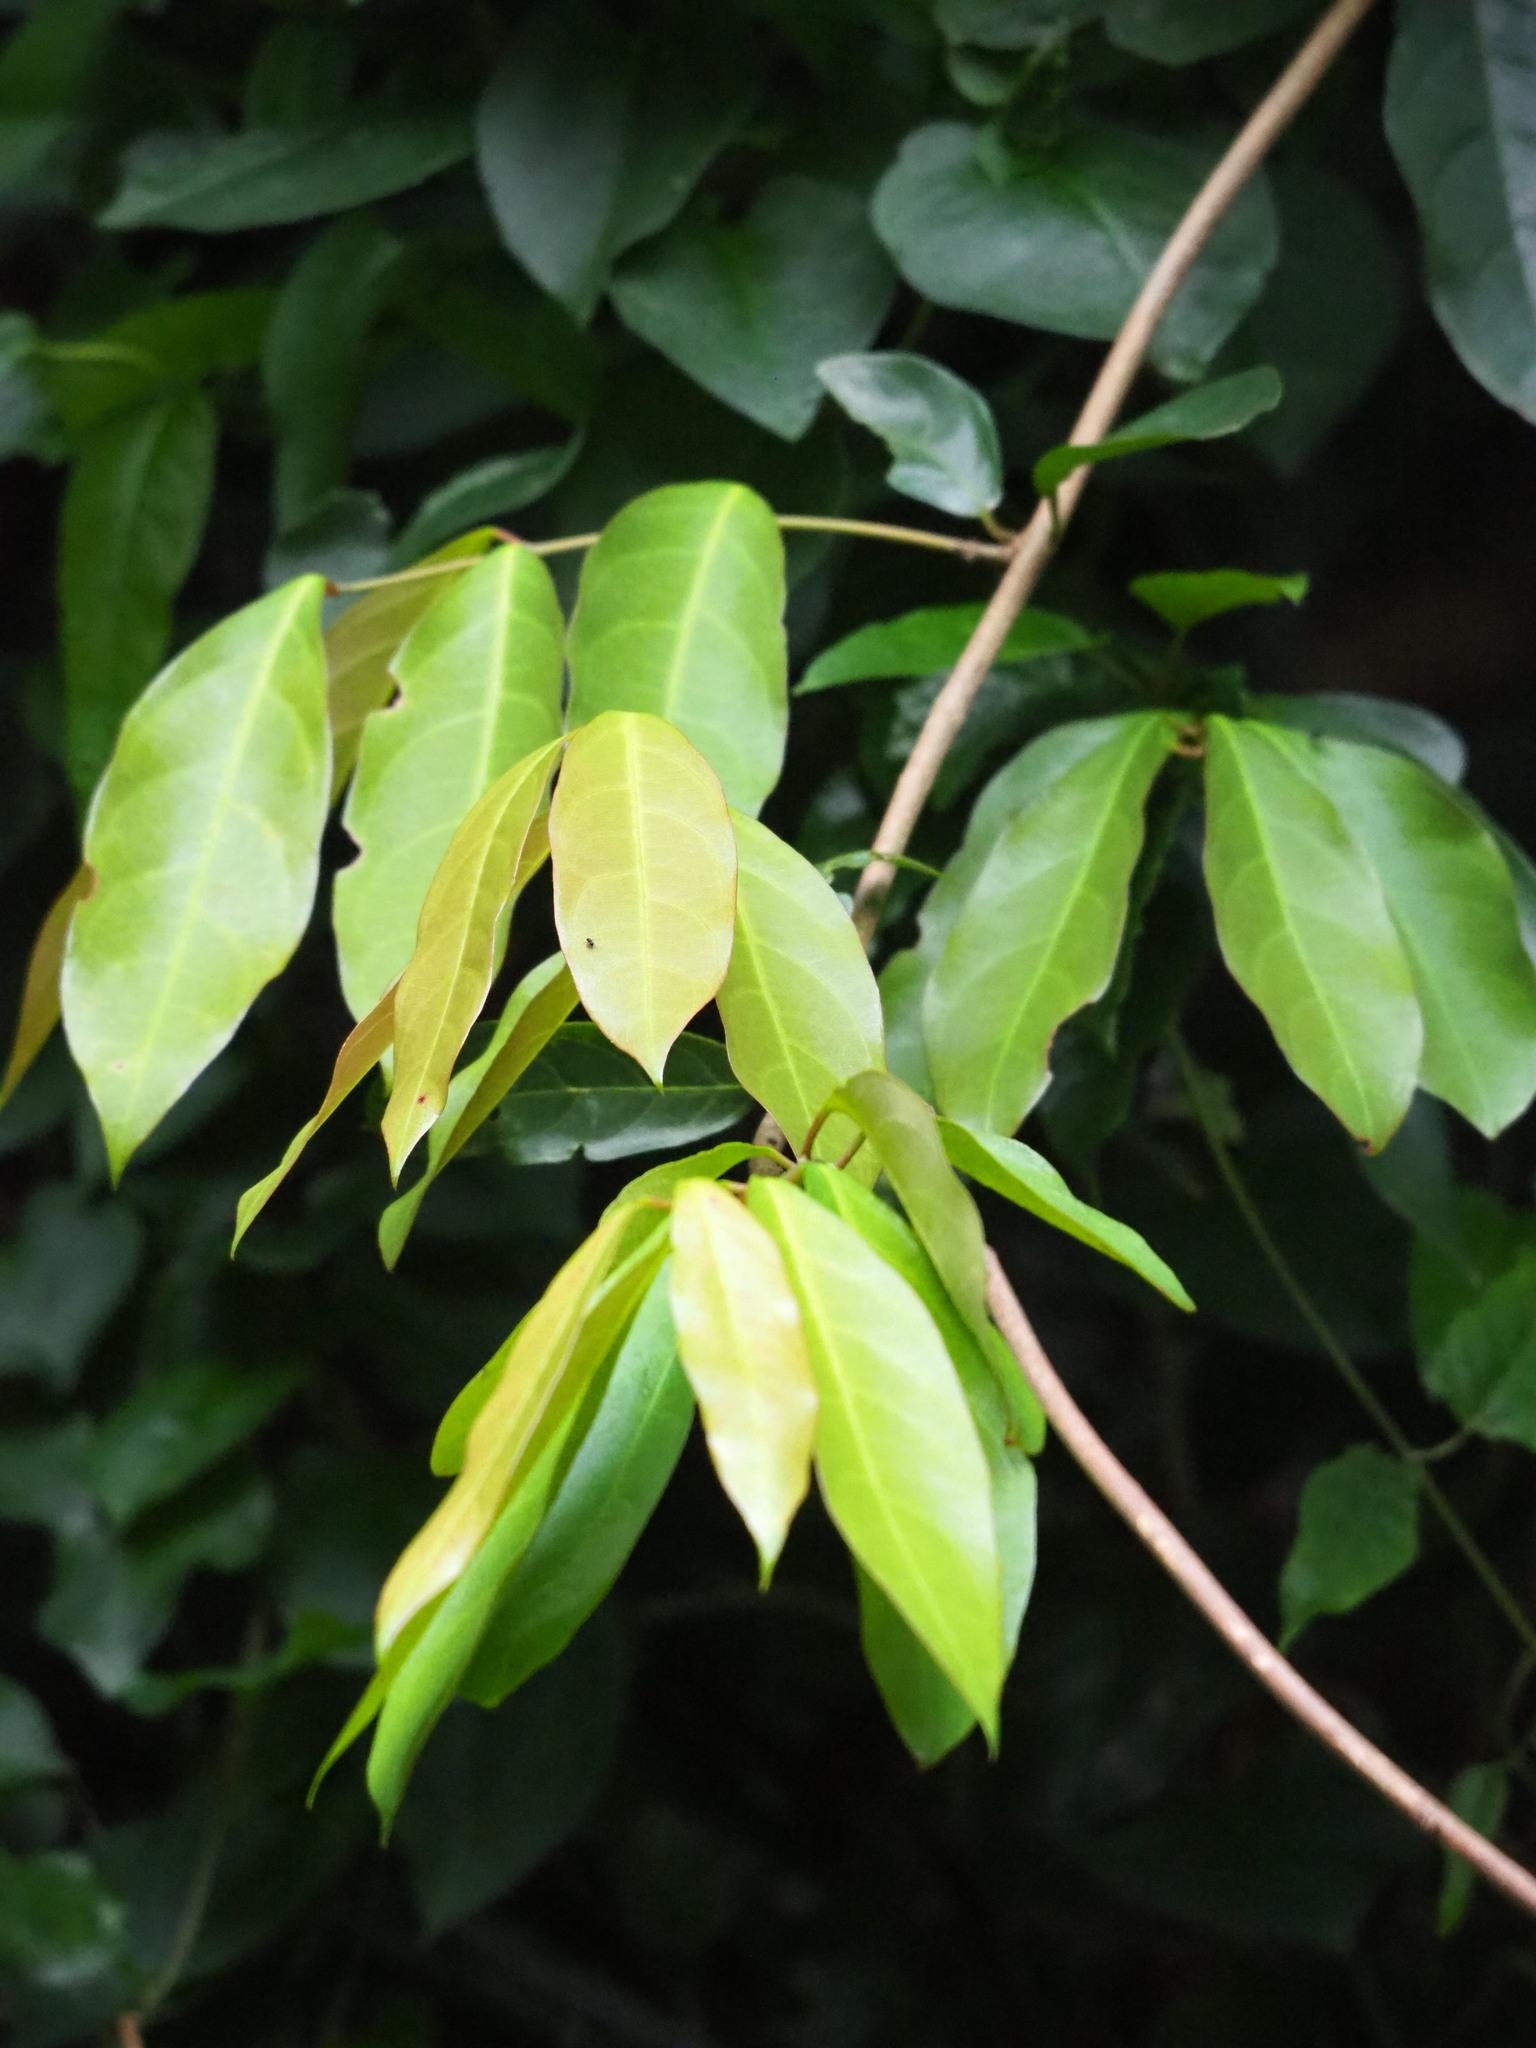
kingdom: Plantae
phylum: Tracheophyta
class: Magnoliopsida
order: Malpighiales
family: Malpighiaceae
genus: Hiptage
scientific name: Hiptage benghalensis
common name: Hiptage
